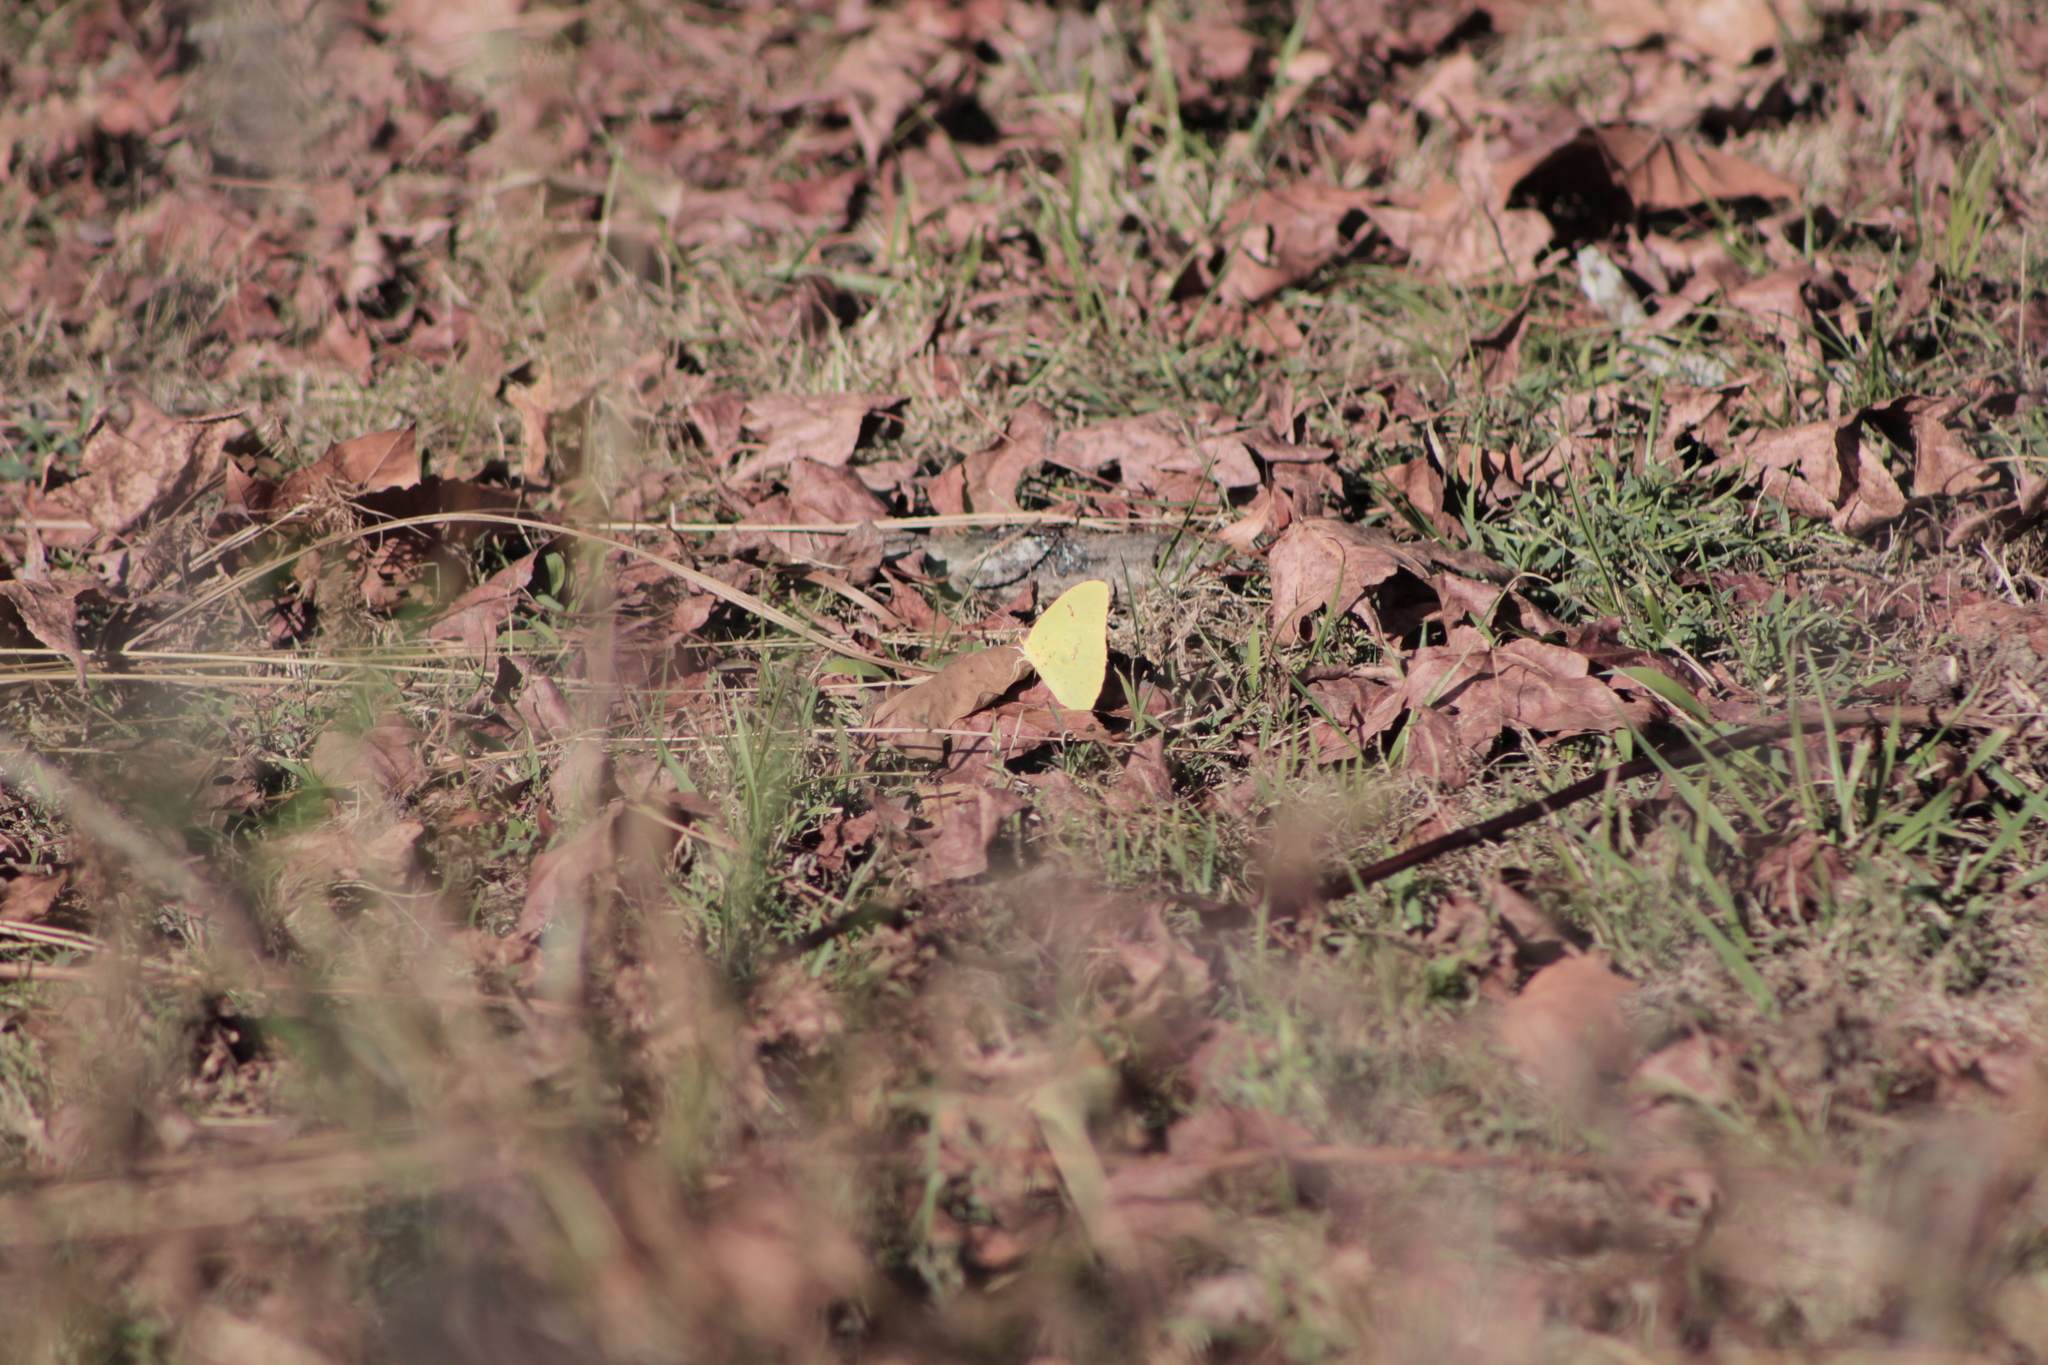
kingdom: Animalia
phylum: Arthropoda
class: Insecta
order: Lepidoptera
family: Pieridae
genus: Phoebis
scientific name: Phoebis sennae
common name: Cloudless sulphur
